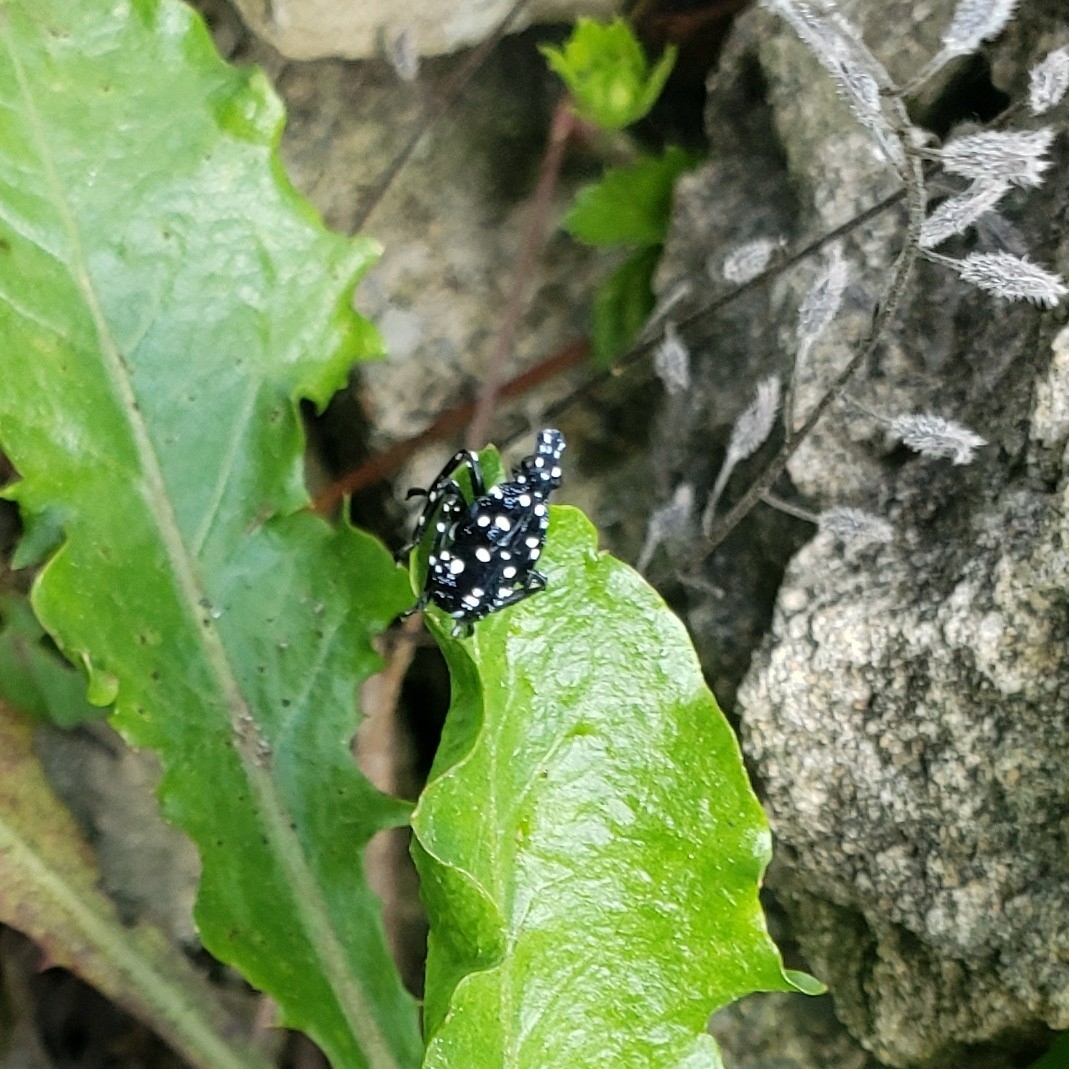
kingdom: Animalia
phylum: Arthropoda
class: Insecta
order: Hemiptera
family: Fulgoridae
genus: Lycorma
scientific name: Lycorma delicatula
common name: Spotted lanternfly
